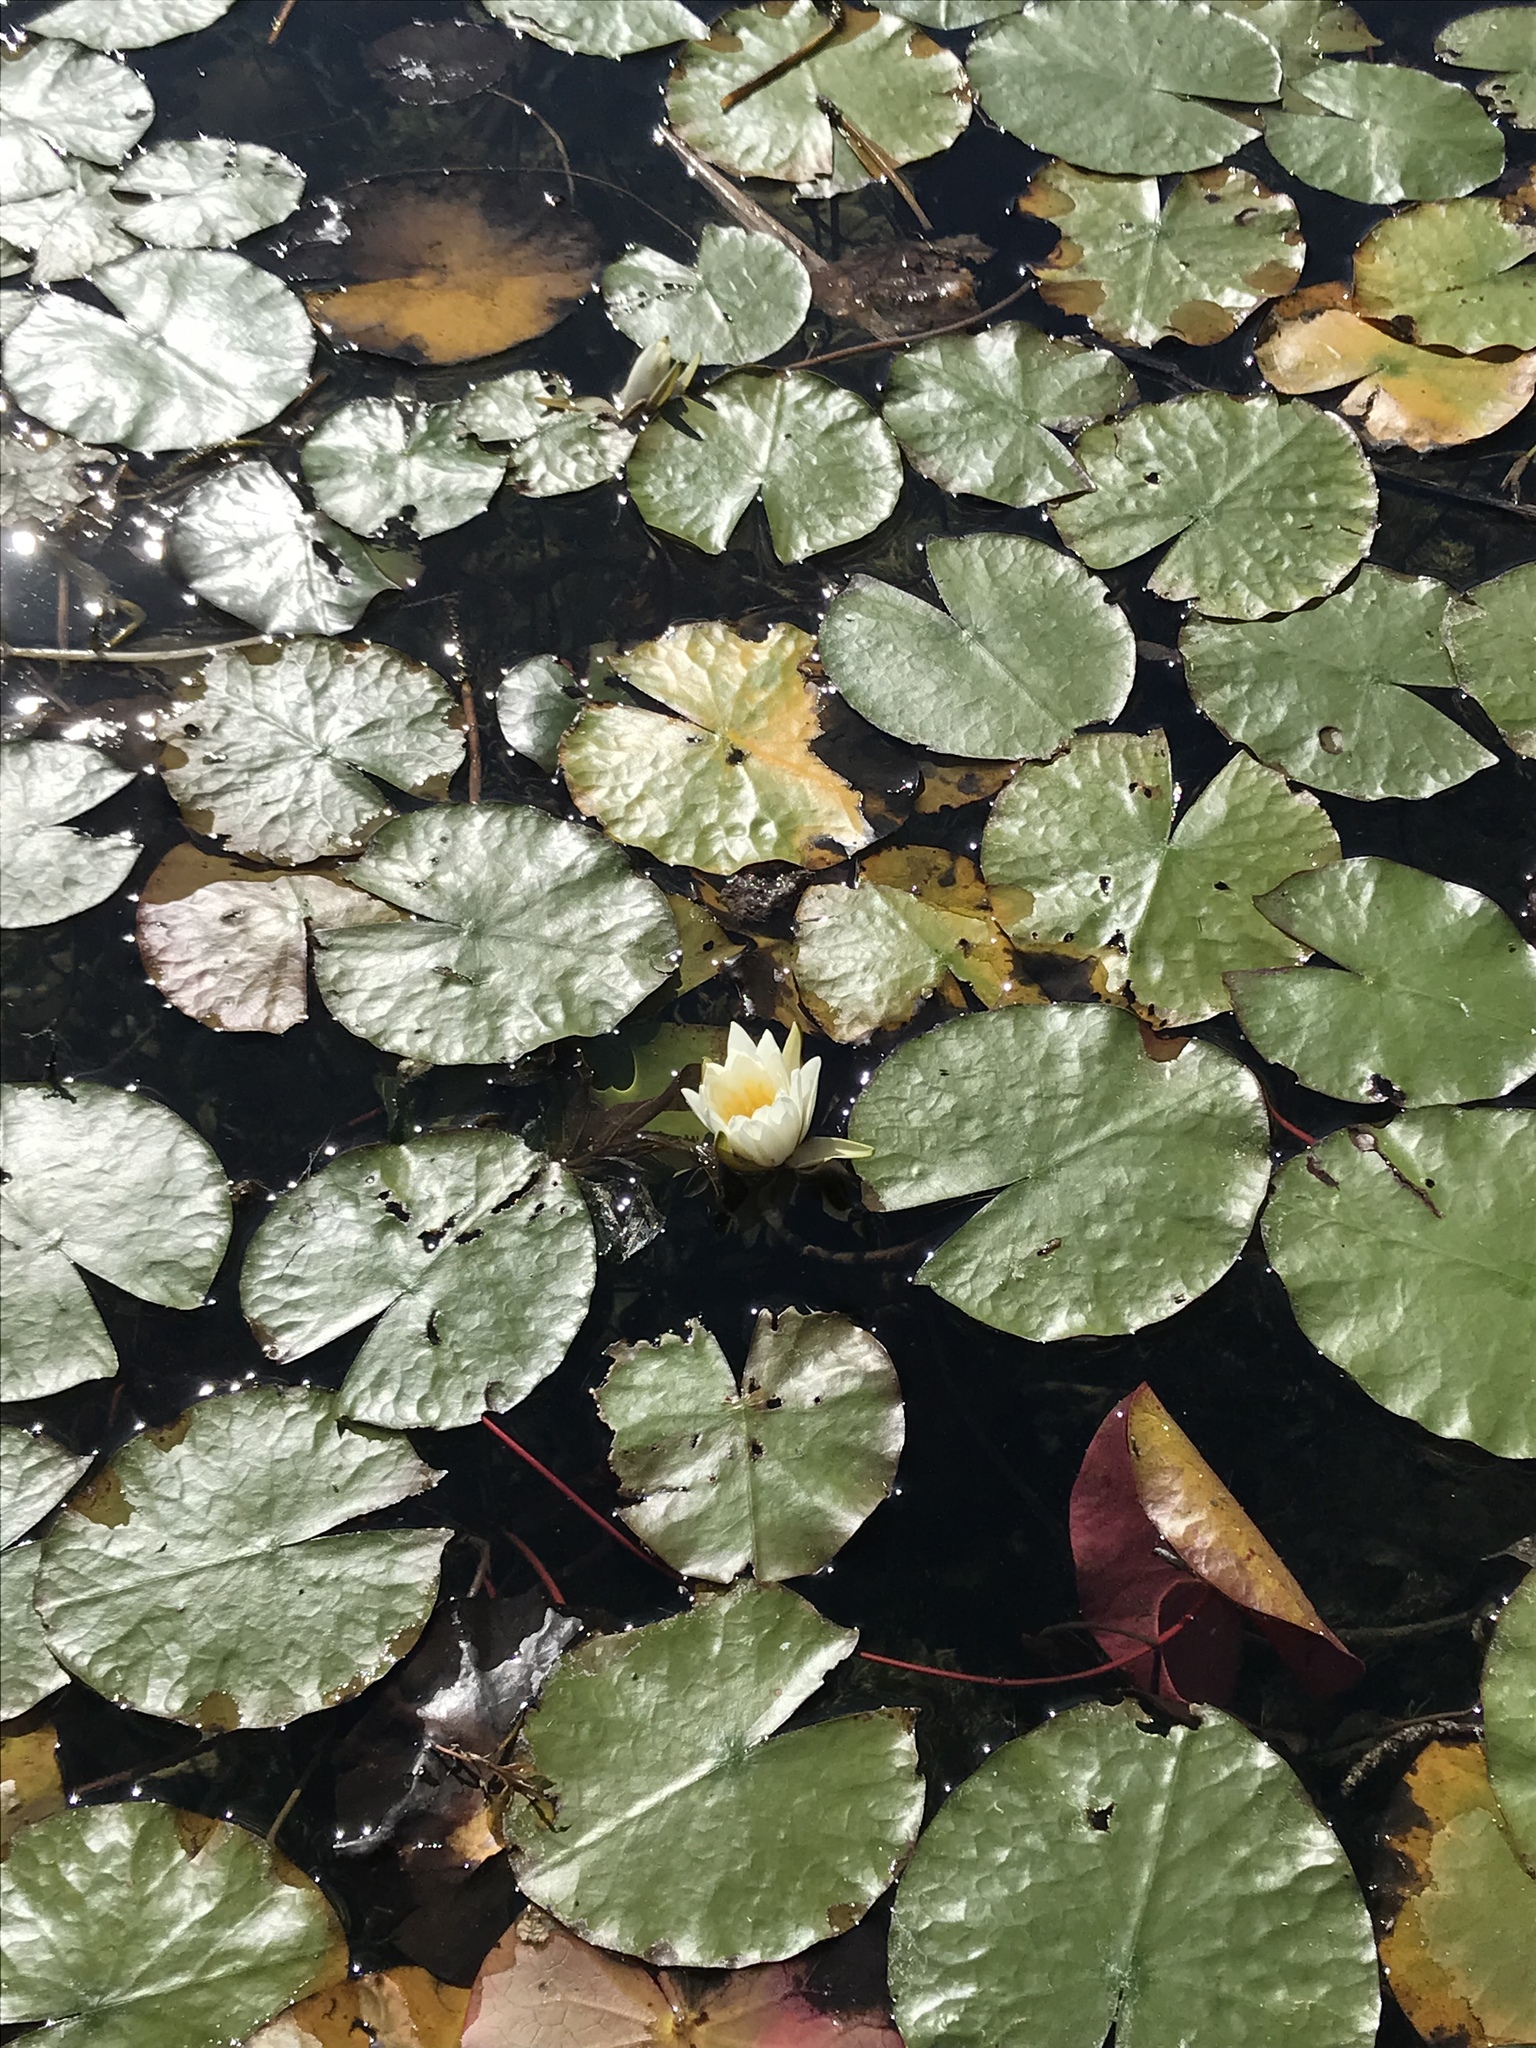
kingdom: Plantae
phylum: Tracheophyta
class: Magnoliopsida
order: Nymphaeales
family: Nymphaeaceae
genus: Nymphaea
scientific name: Nymphaea odorata
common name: Fragrant water-lily
